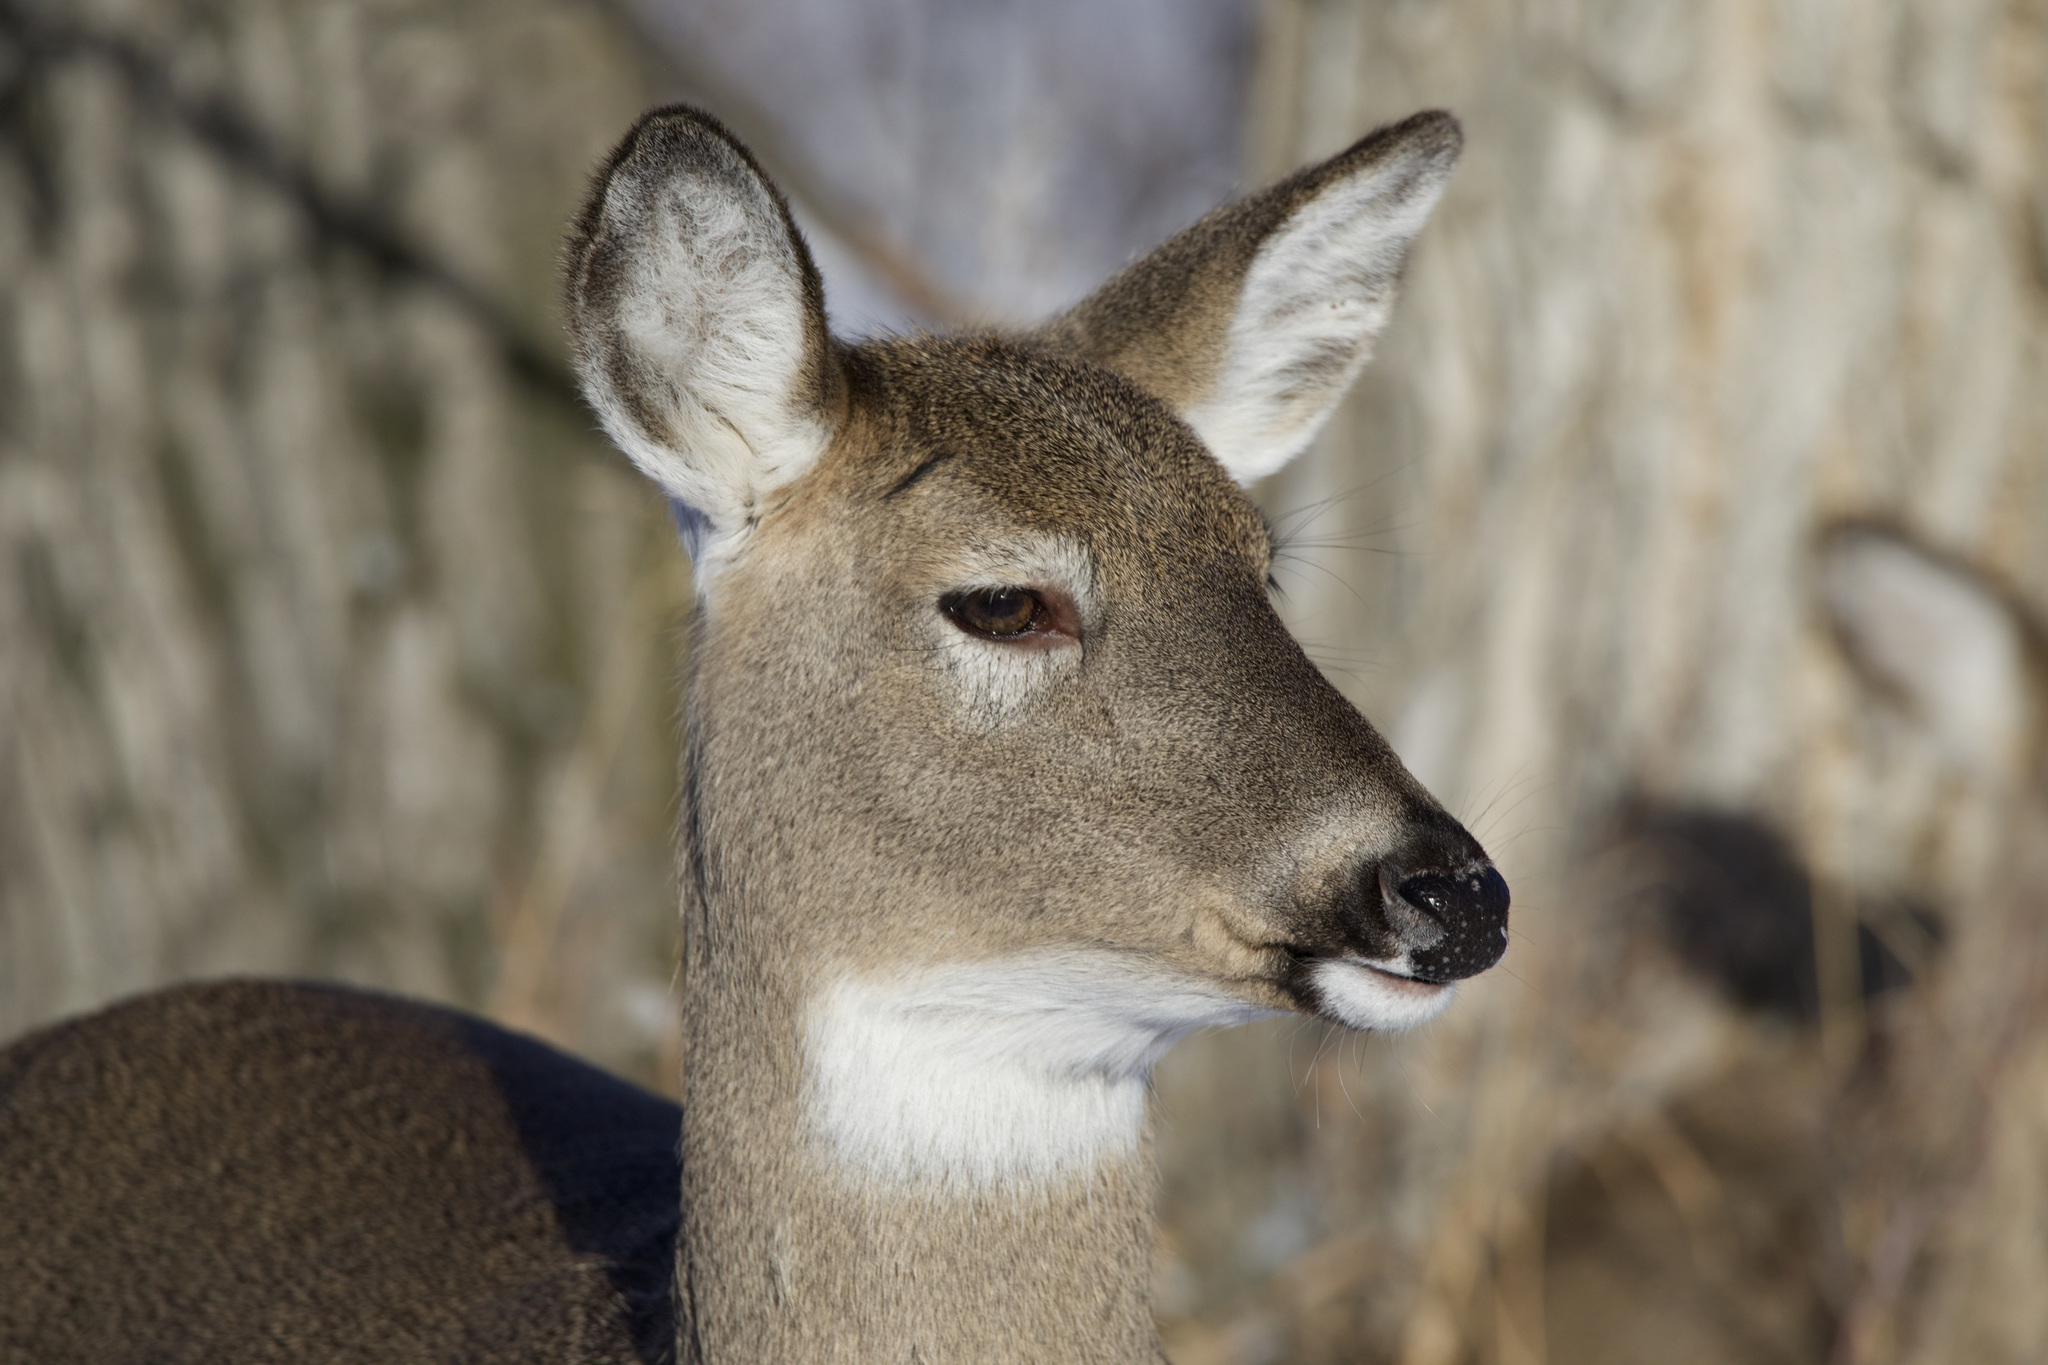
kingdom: Animalia
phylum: Chordata
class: Mammalia
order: Artiodactyla
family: Cervidae
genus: Odocoileus
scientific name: Odocoileus virginianus
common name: White-tailed deer
